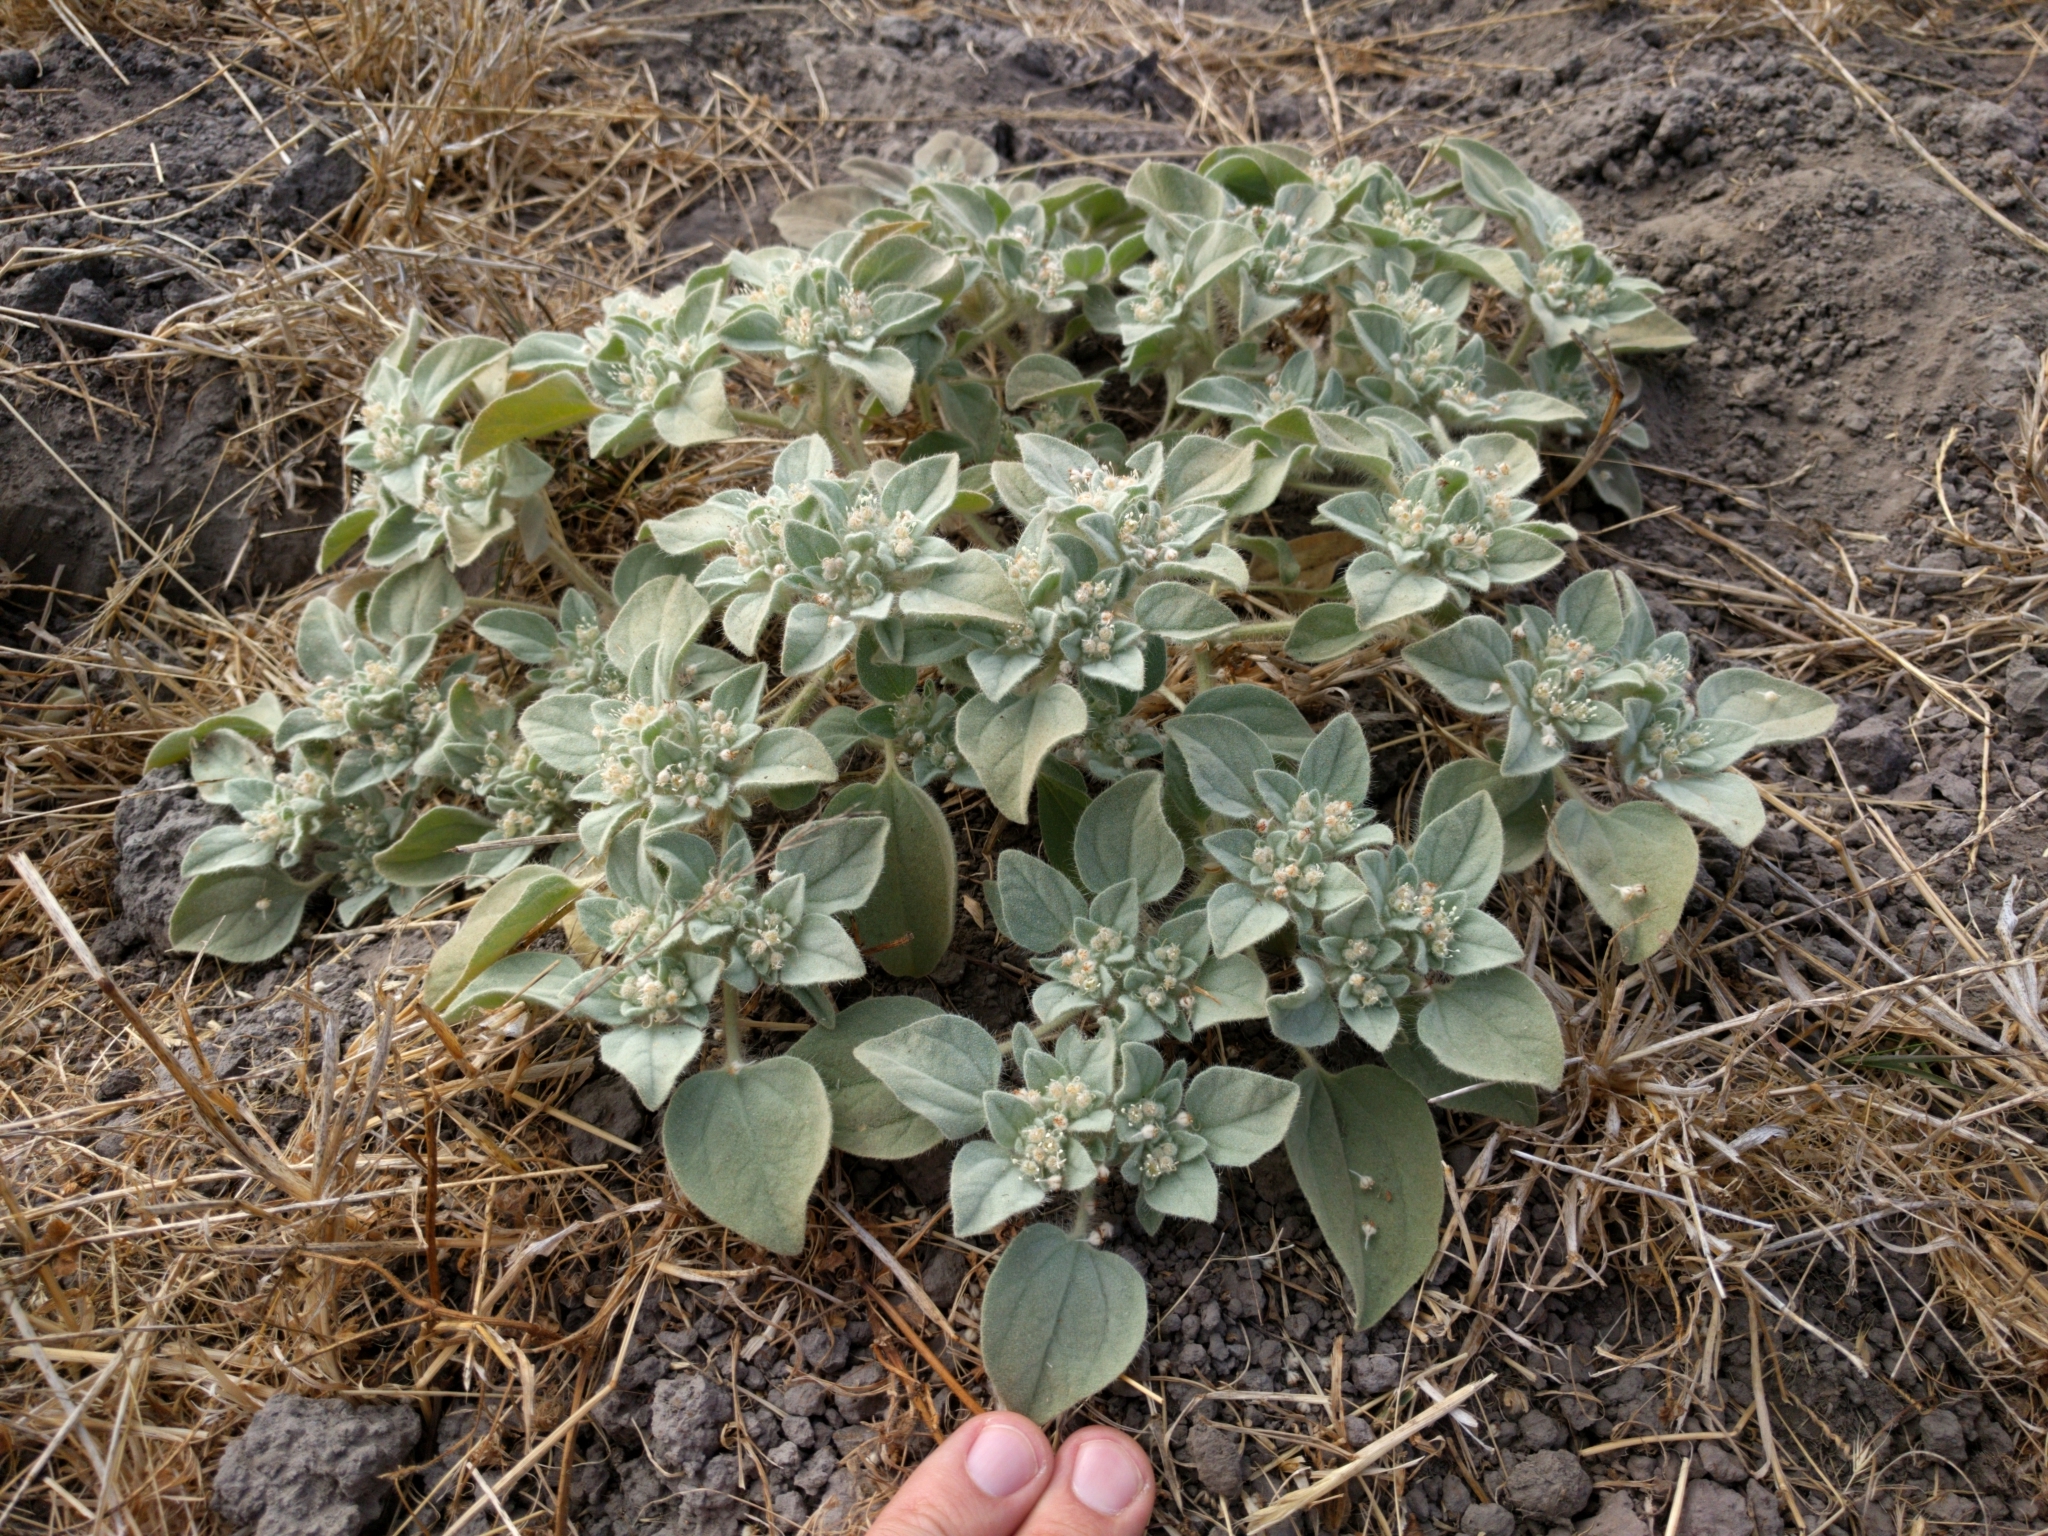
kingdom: Plantae
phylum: Tracheophyta
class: Magnoliopsida
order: Malpighiales
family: Euphorbiaceae
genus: Croton
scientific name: Croton setiger
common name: Dove weed
